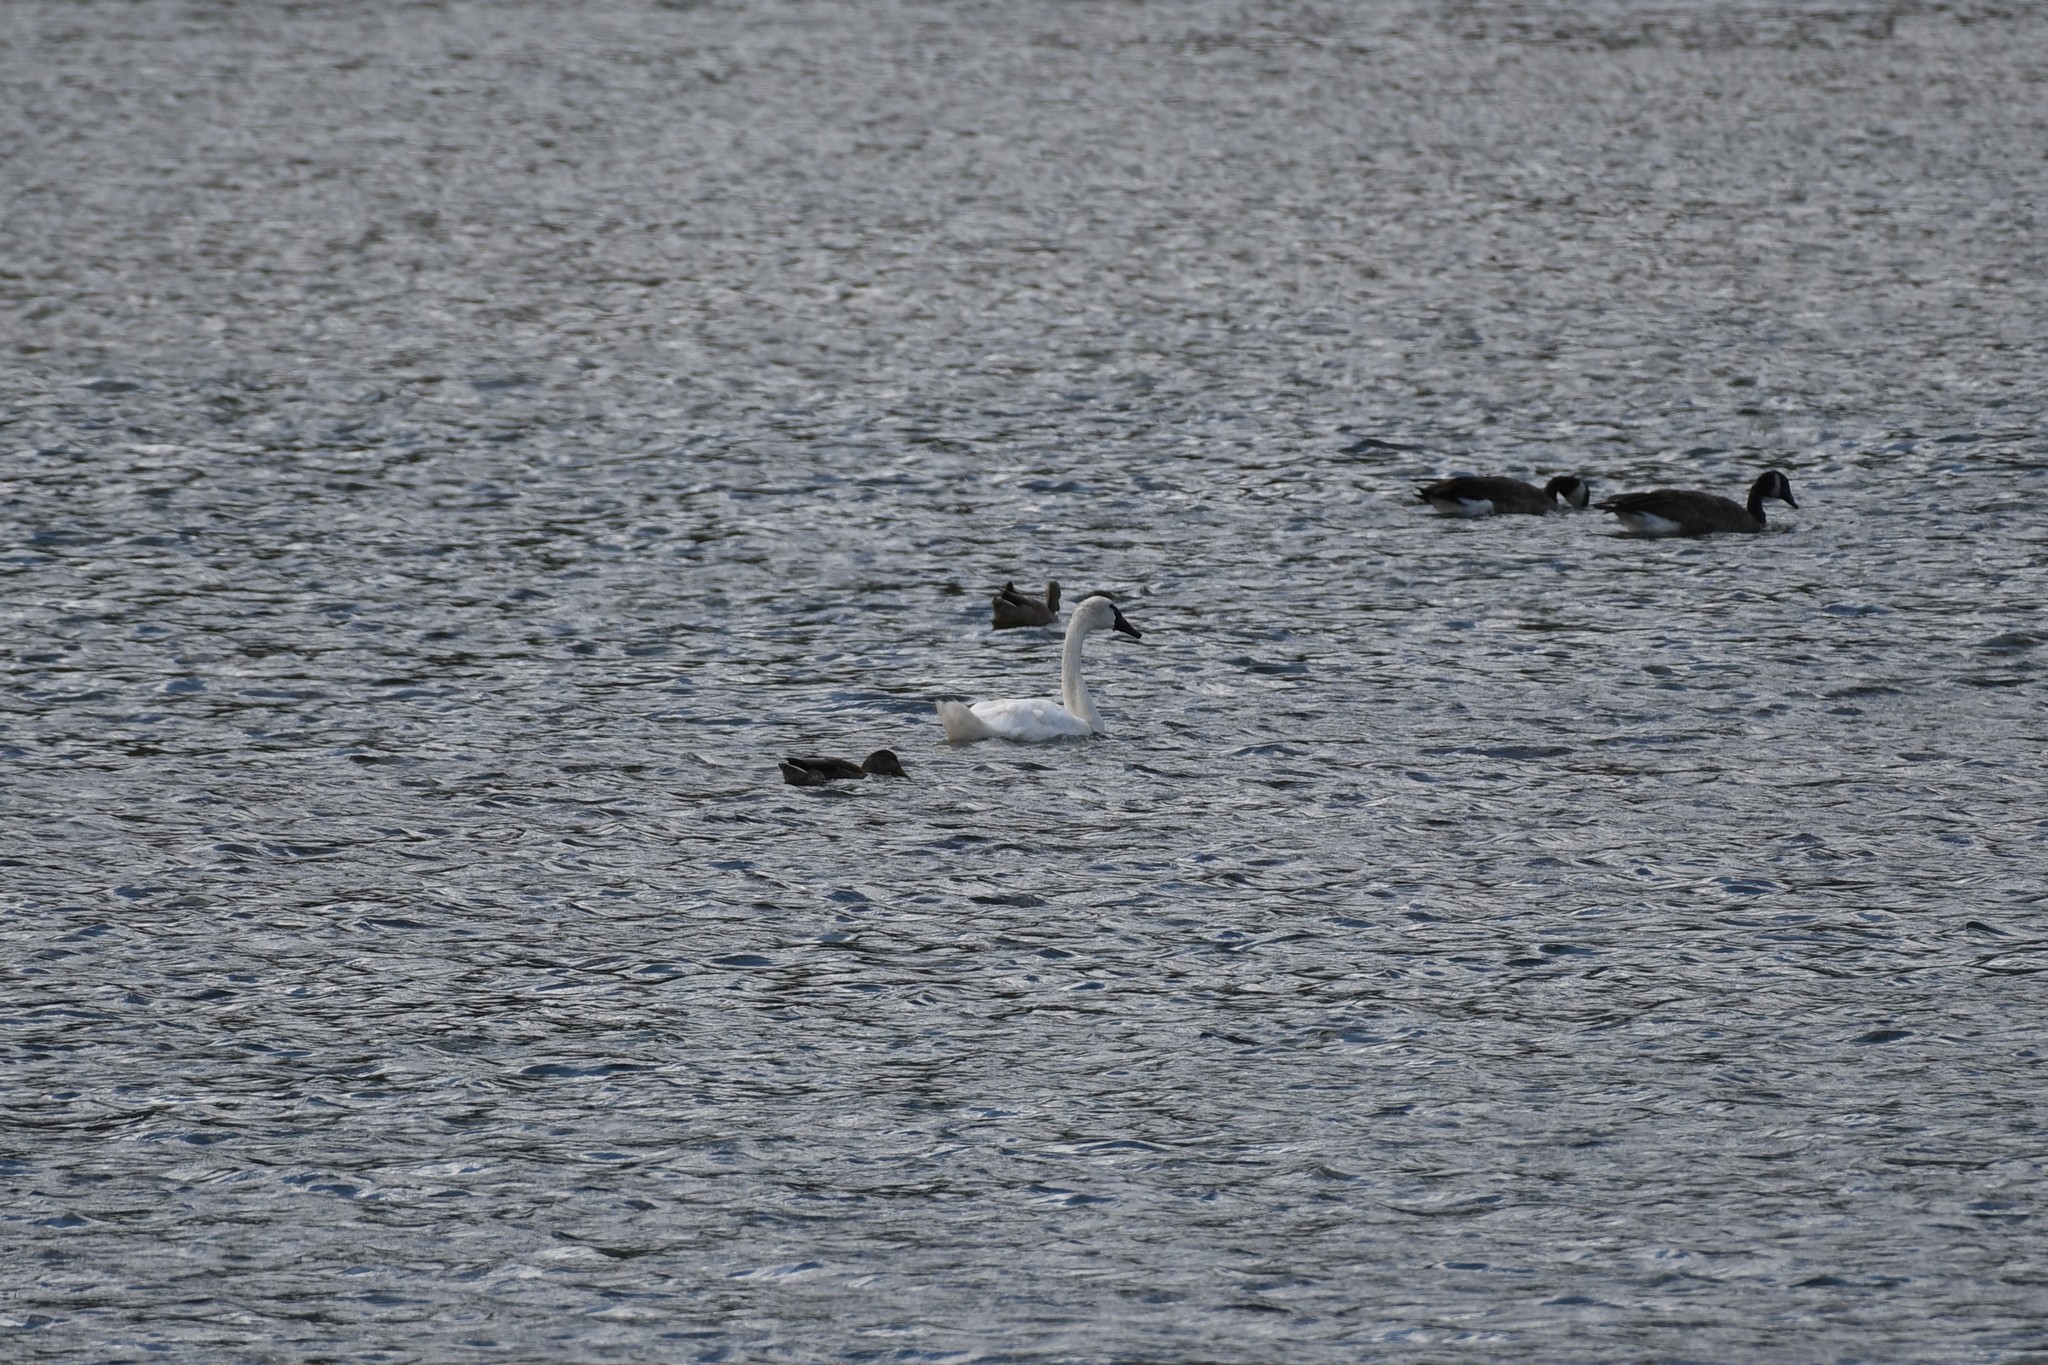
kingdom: Animalia
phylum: Chordata
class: Aves
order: Anseriformes
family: Anatidae
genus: Cygnus
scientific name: Cygnus buccinator
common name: Trumpeter swan
